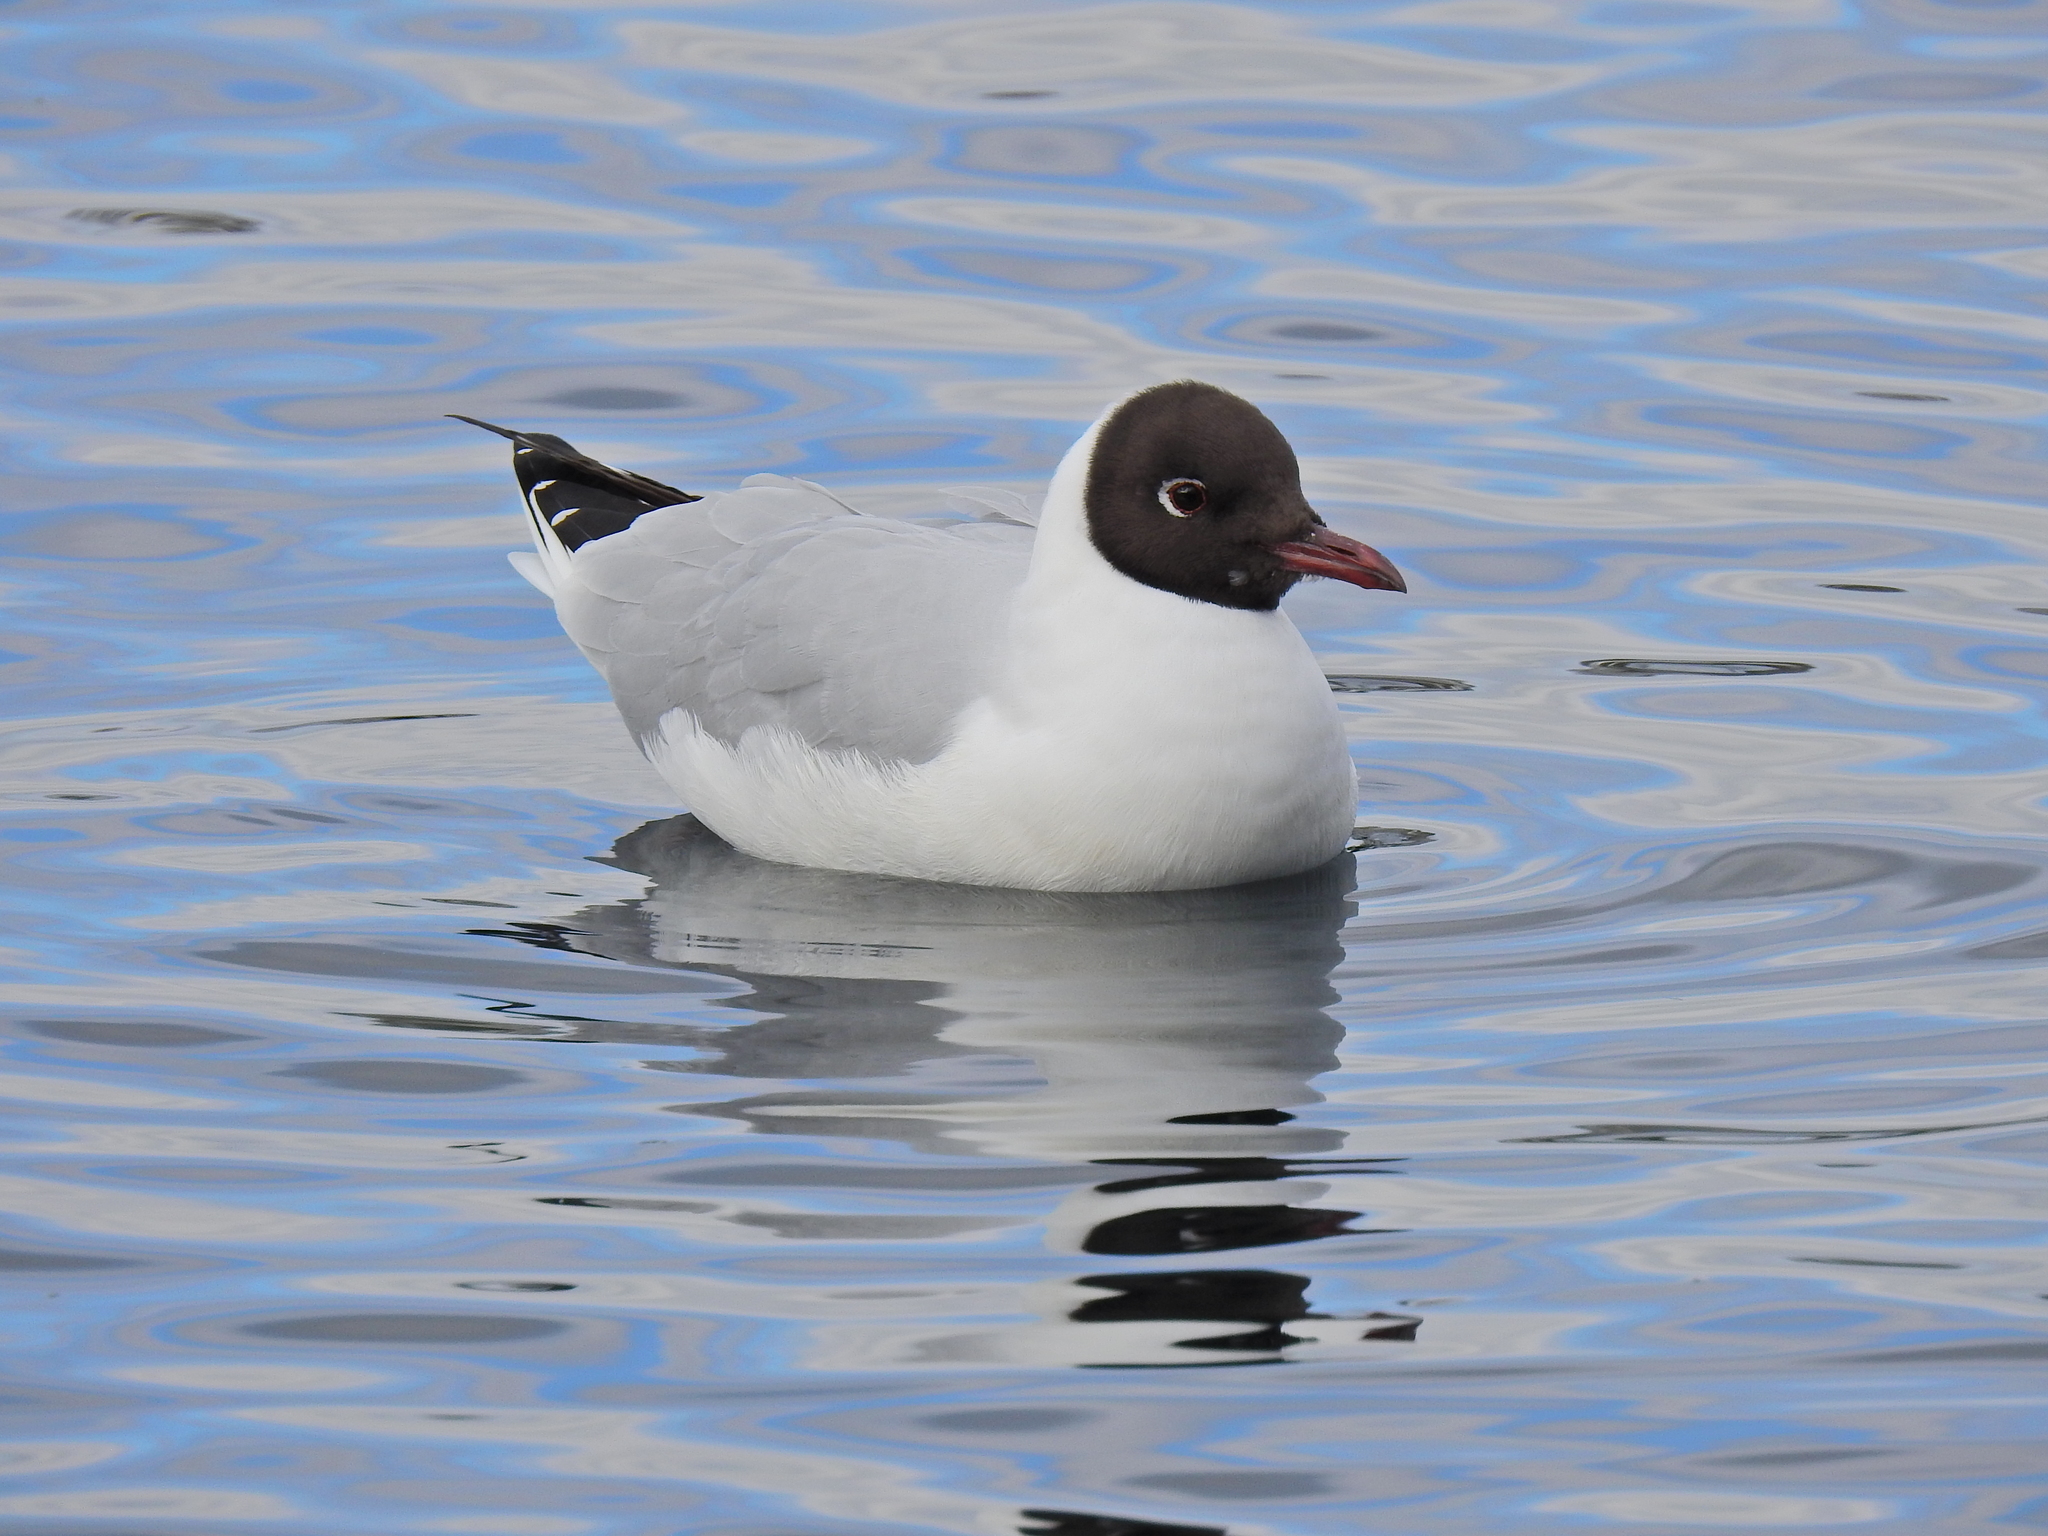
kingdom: Animalia
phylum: Chordata
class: Aves
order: Charadriiformes
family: Laridae
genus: Chroicocephalus
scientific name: Chroicocephalus ridibundus
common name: Black-headed gull
